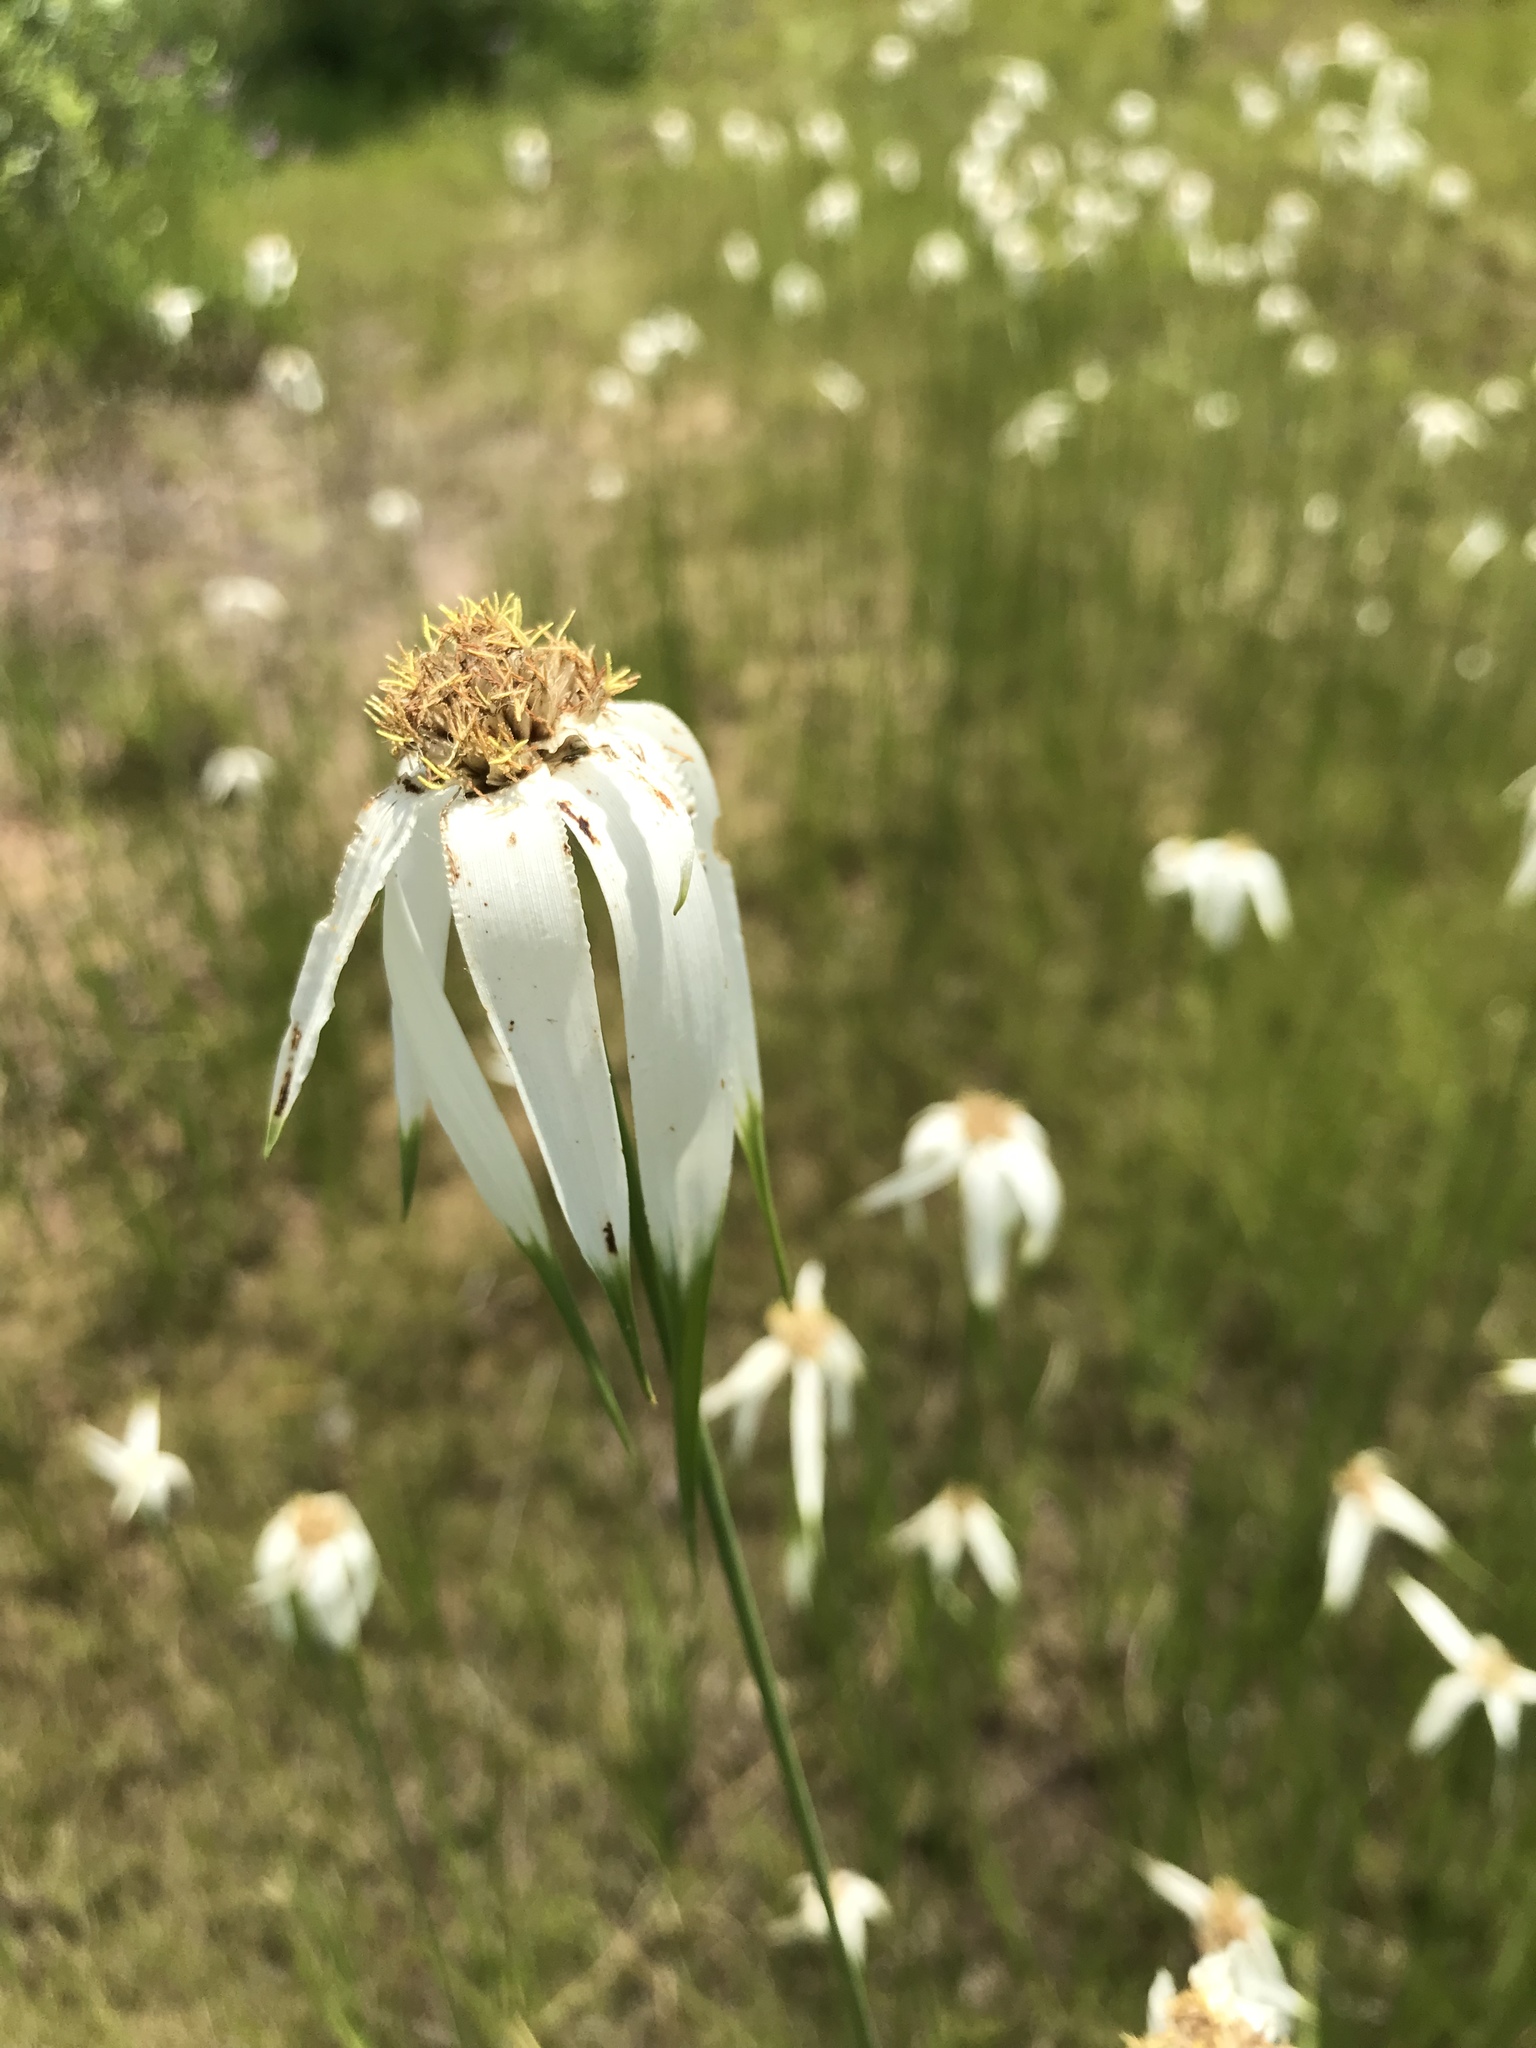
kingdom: Plantae
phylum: Tracheophyta
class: Liliopsida
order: Poales
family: Cyperaceae
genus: Rhynchospora
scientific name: Rhynchospora latifolia
